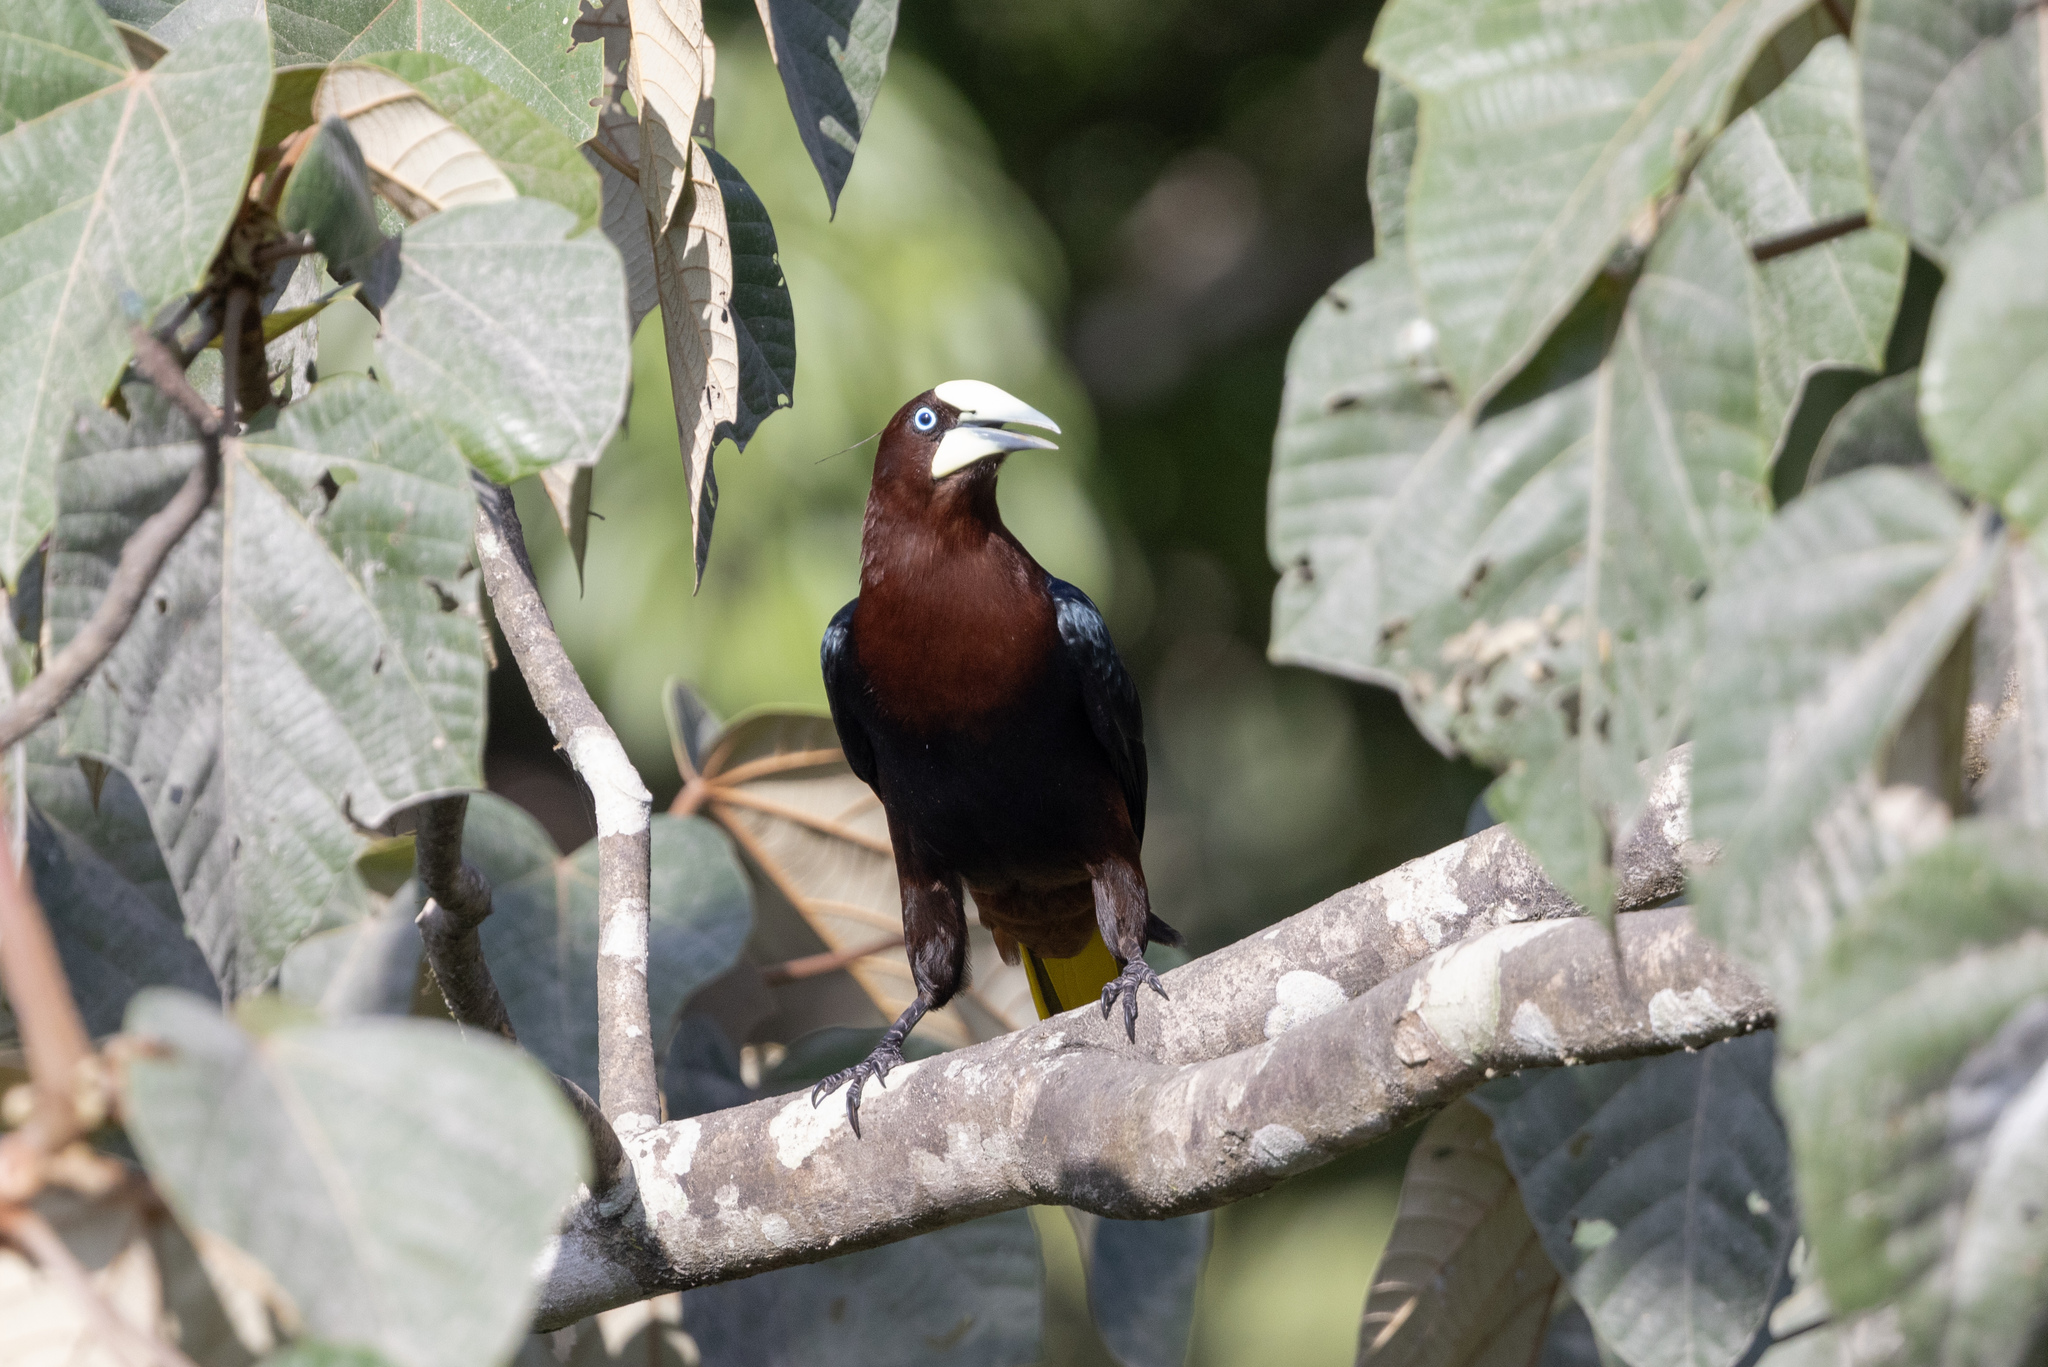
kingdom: Animalia
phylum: Chordata
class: Aves
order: Passeriformes
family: Icteridae
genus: Psarocolius
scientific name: Psarocolius wagleri
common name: Chestnut-headed oropendola
